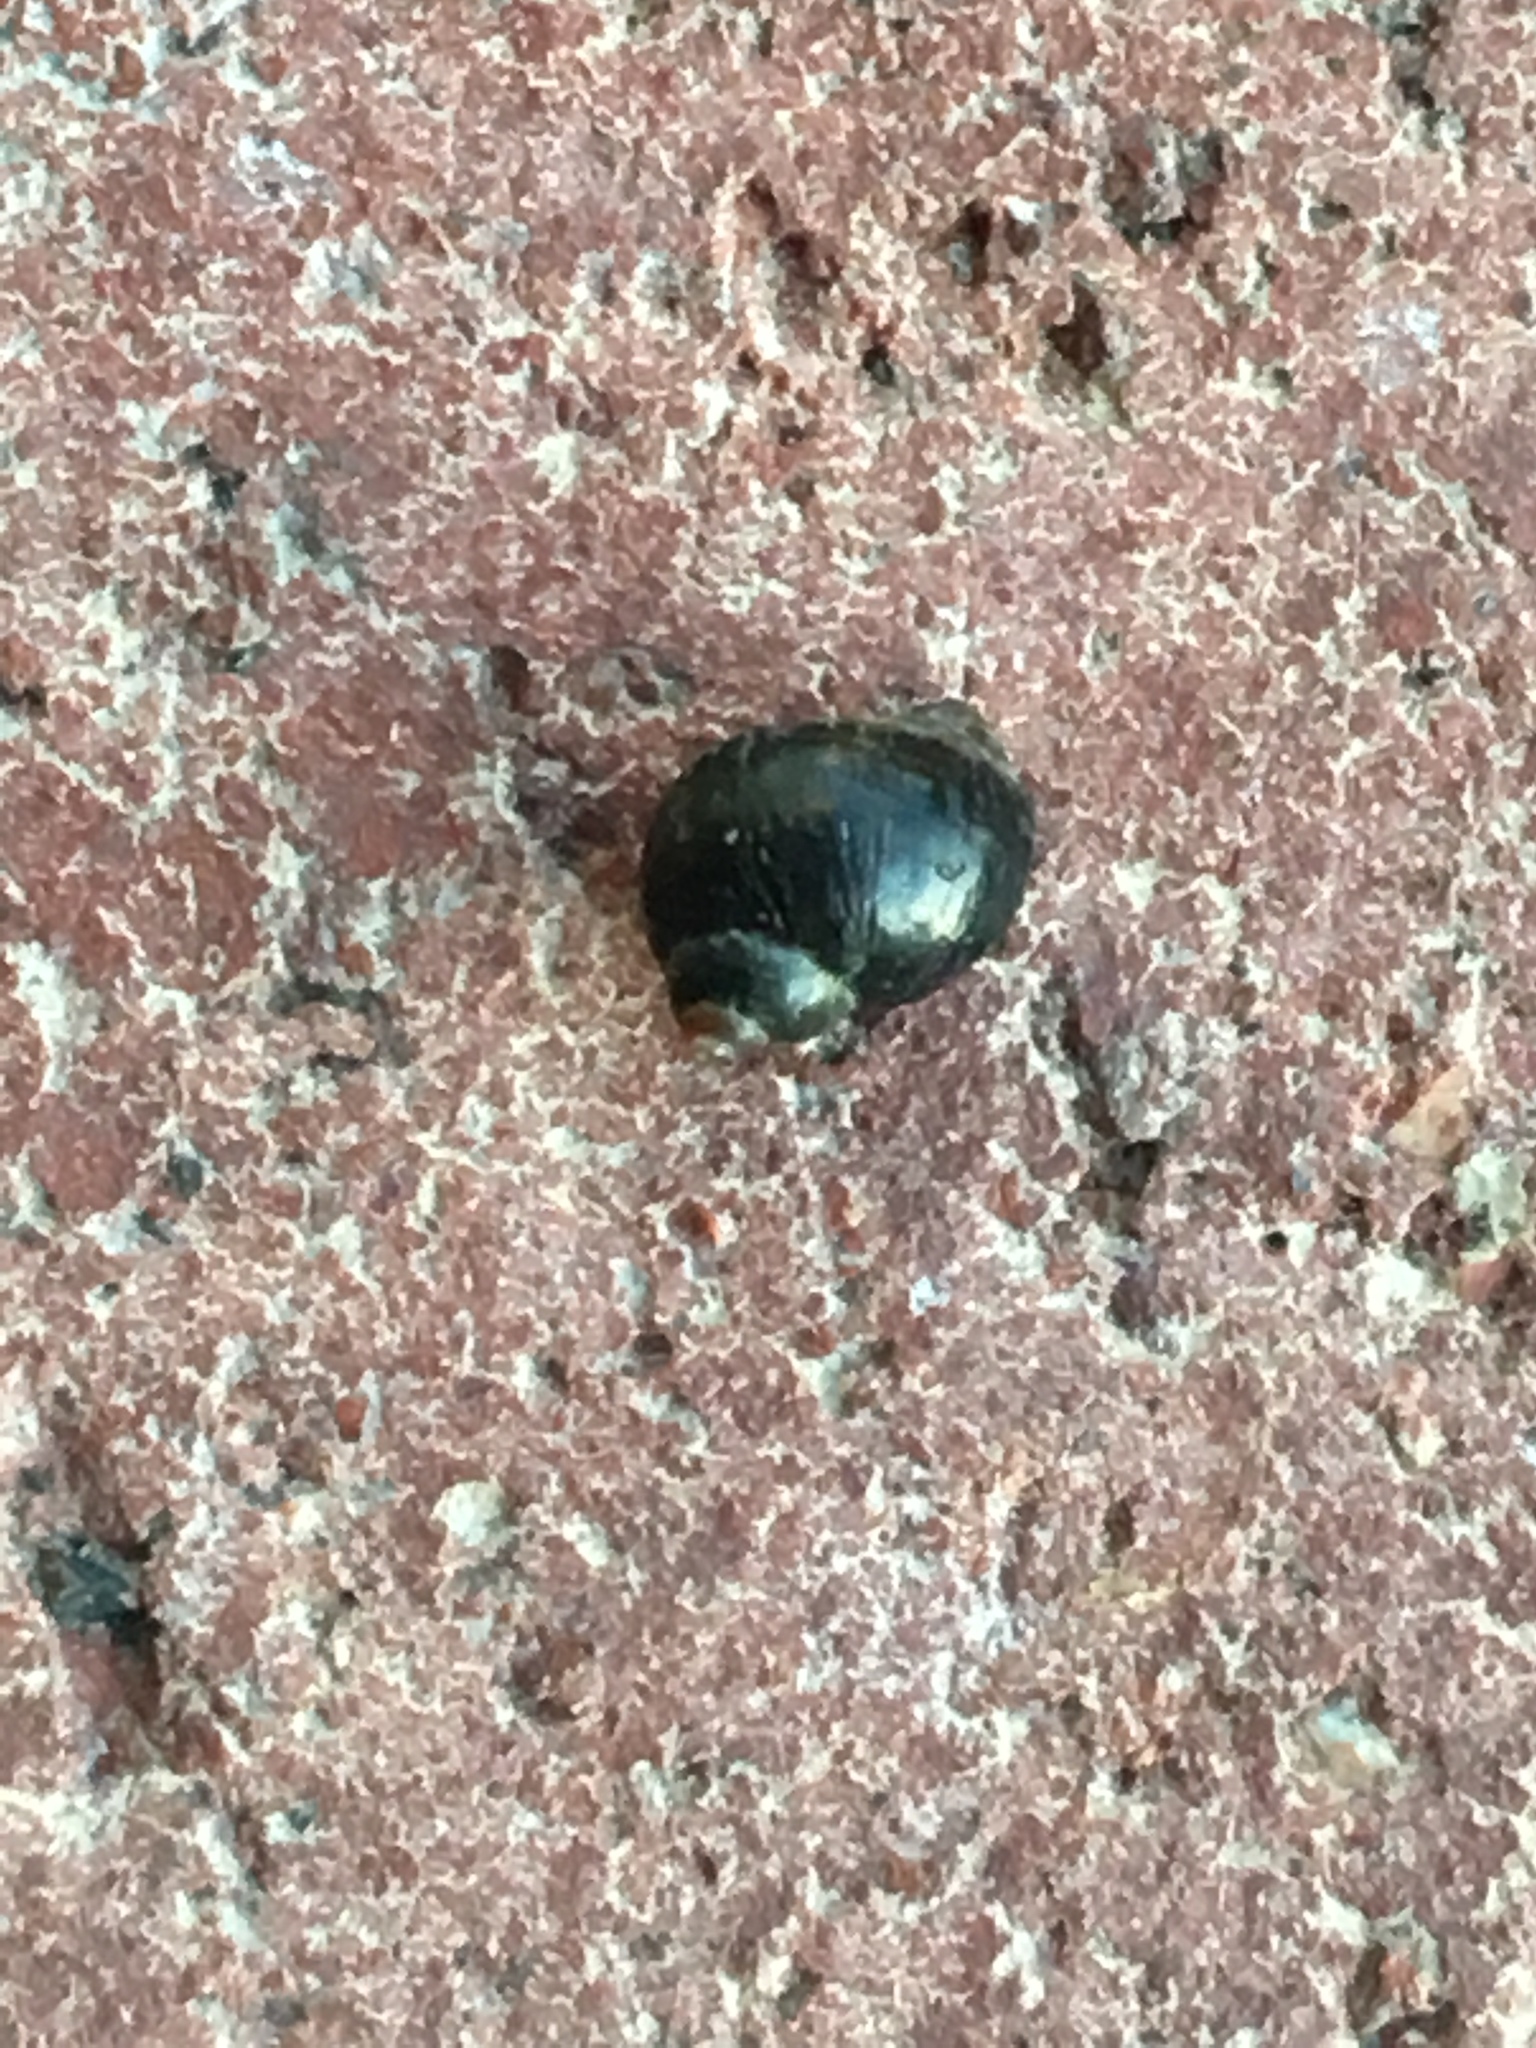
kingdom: Animalia
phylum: Mollusca
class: Gastropoda
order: Littorinimorpha
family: Littorinidae
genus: Littorina
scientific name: Littorina keenae
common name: Eroded periwinkle
